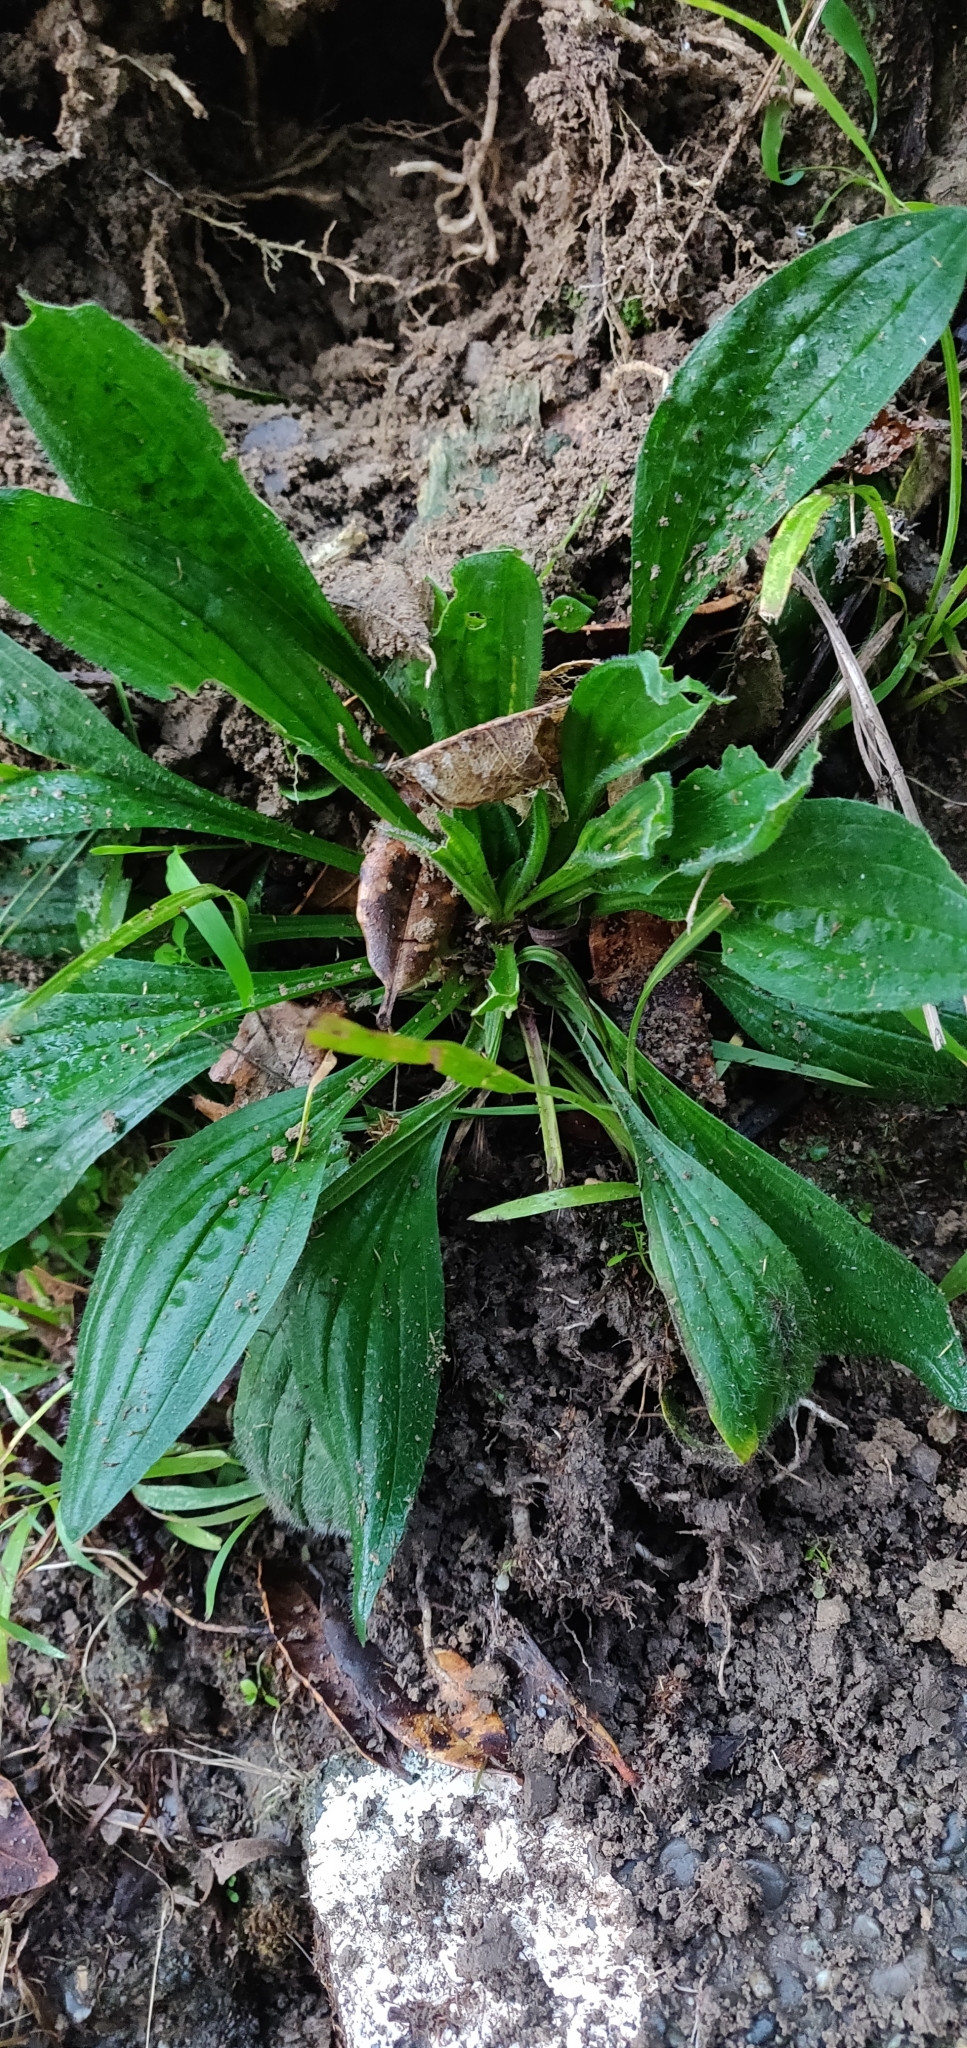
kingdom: Plantae
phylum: Tracheophyta
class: Magnoliopsida
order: Lamiales
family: Plantaginaceae
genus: Plantago
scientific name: Plantago lanceolata
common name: Ribwort plantain
